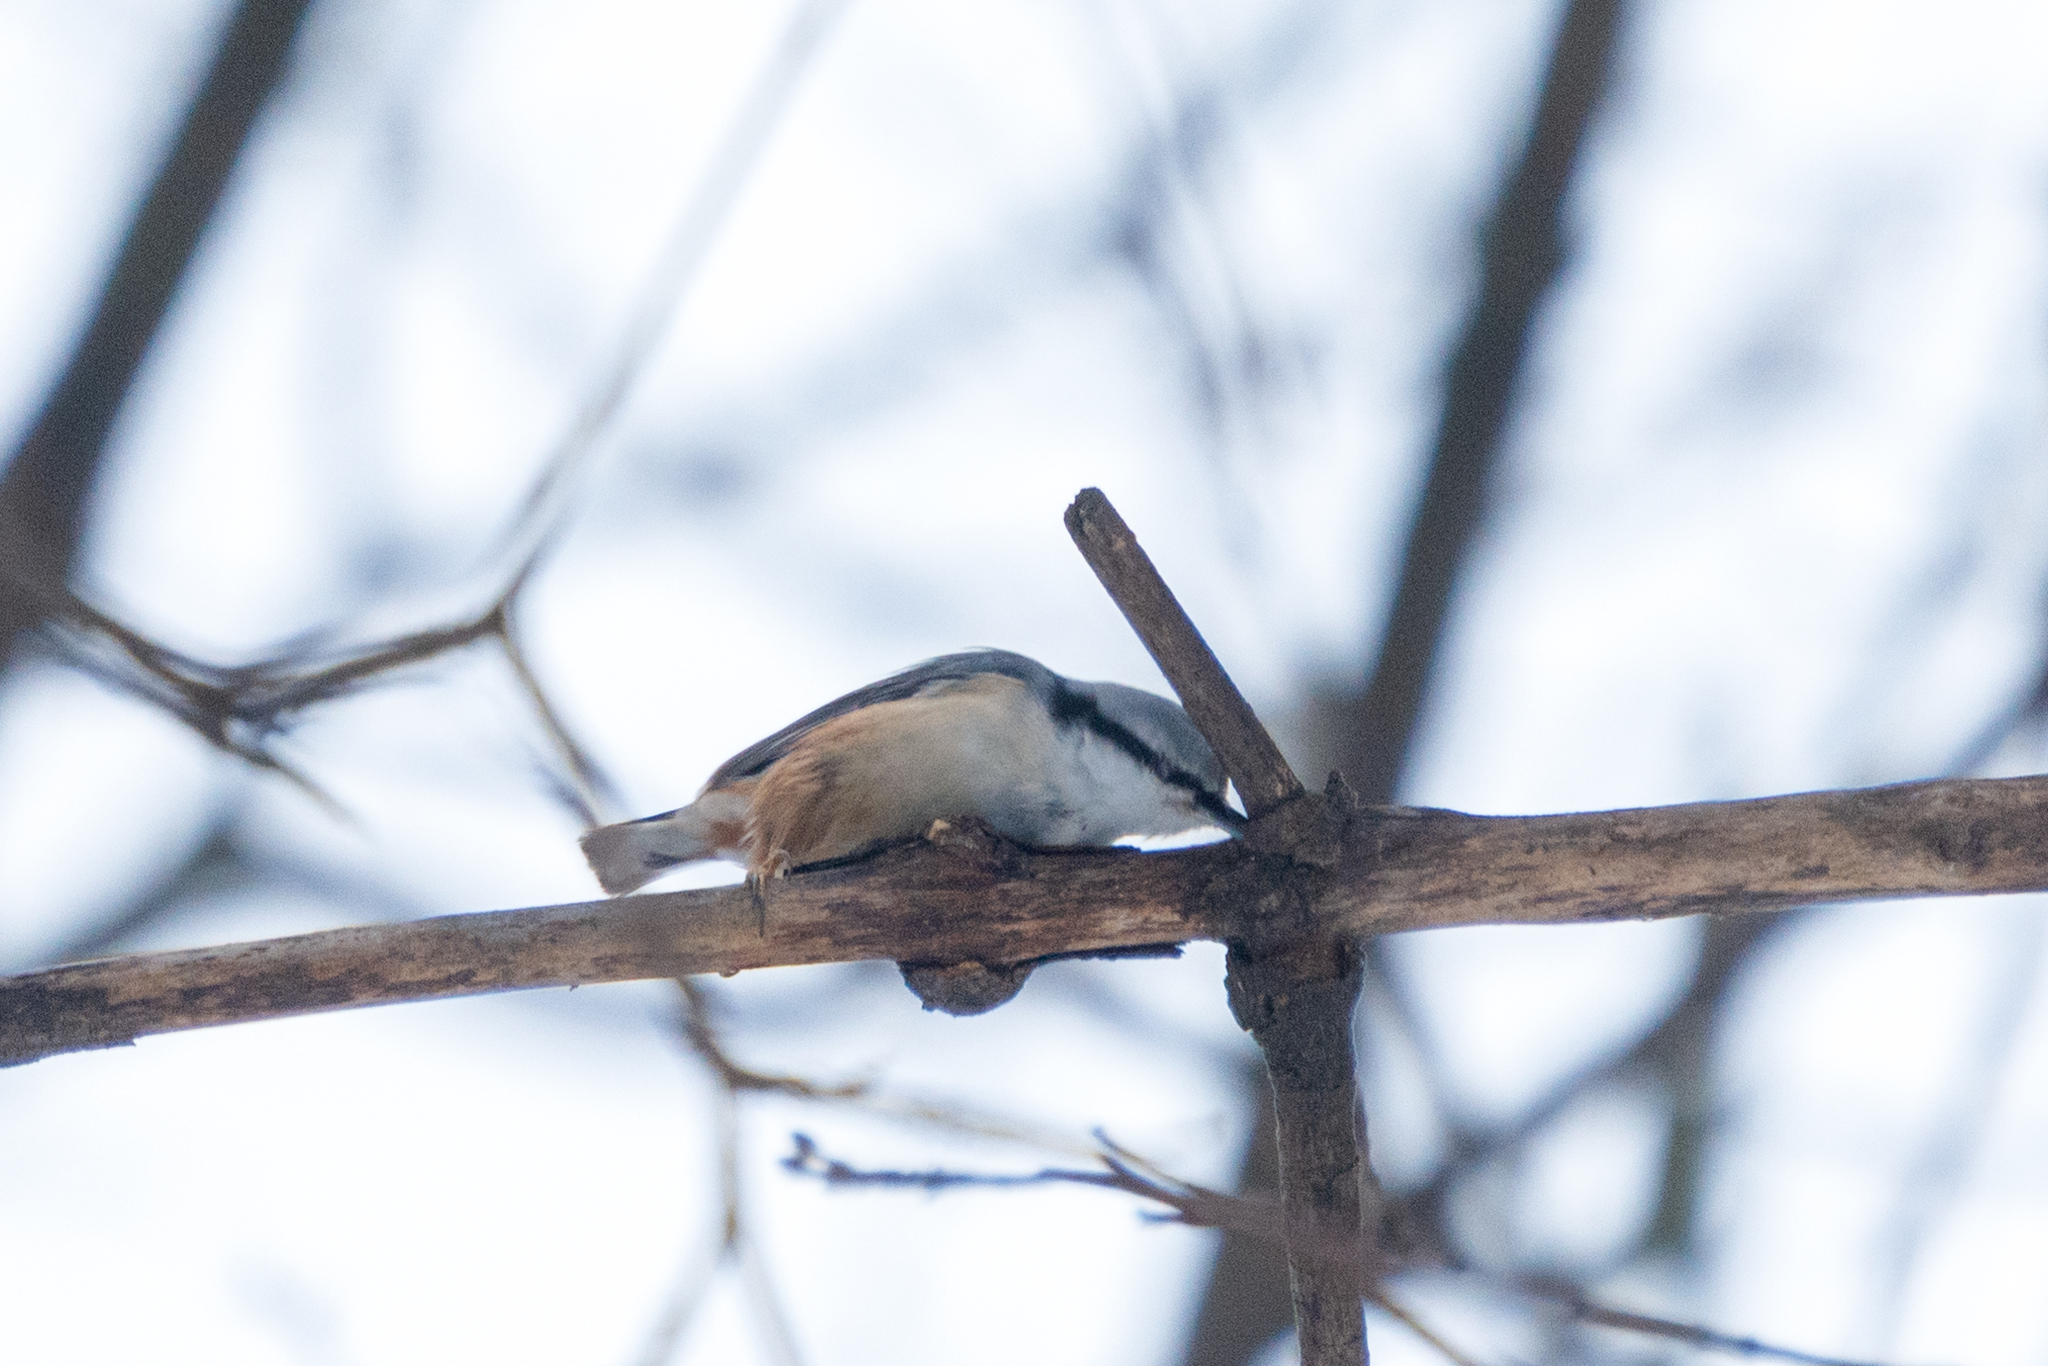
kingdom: Animalia
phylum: Chordata
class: Aves
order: Passeriformes
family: Sittidae
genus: Sitta
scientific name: Sitta europaea
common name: Eurasian nuthatch
